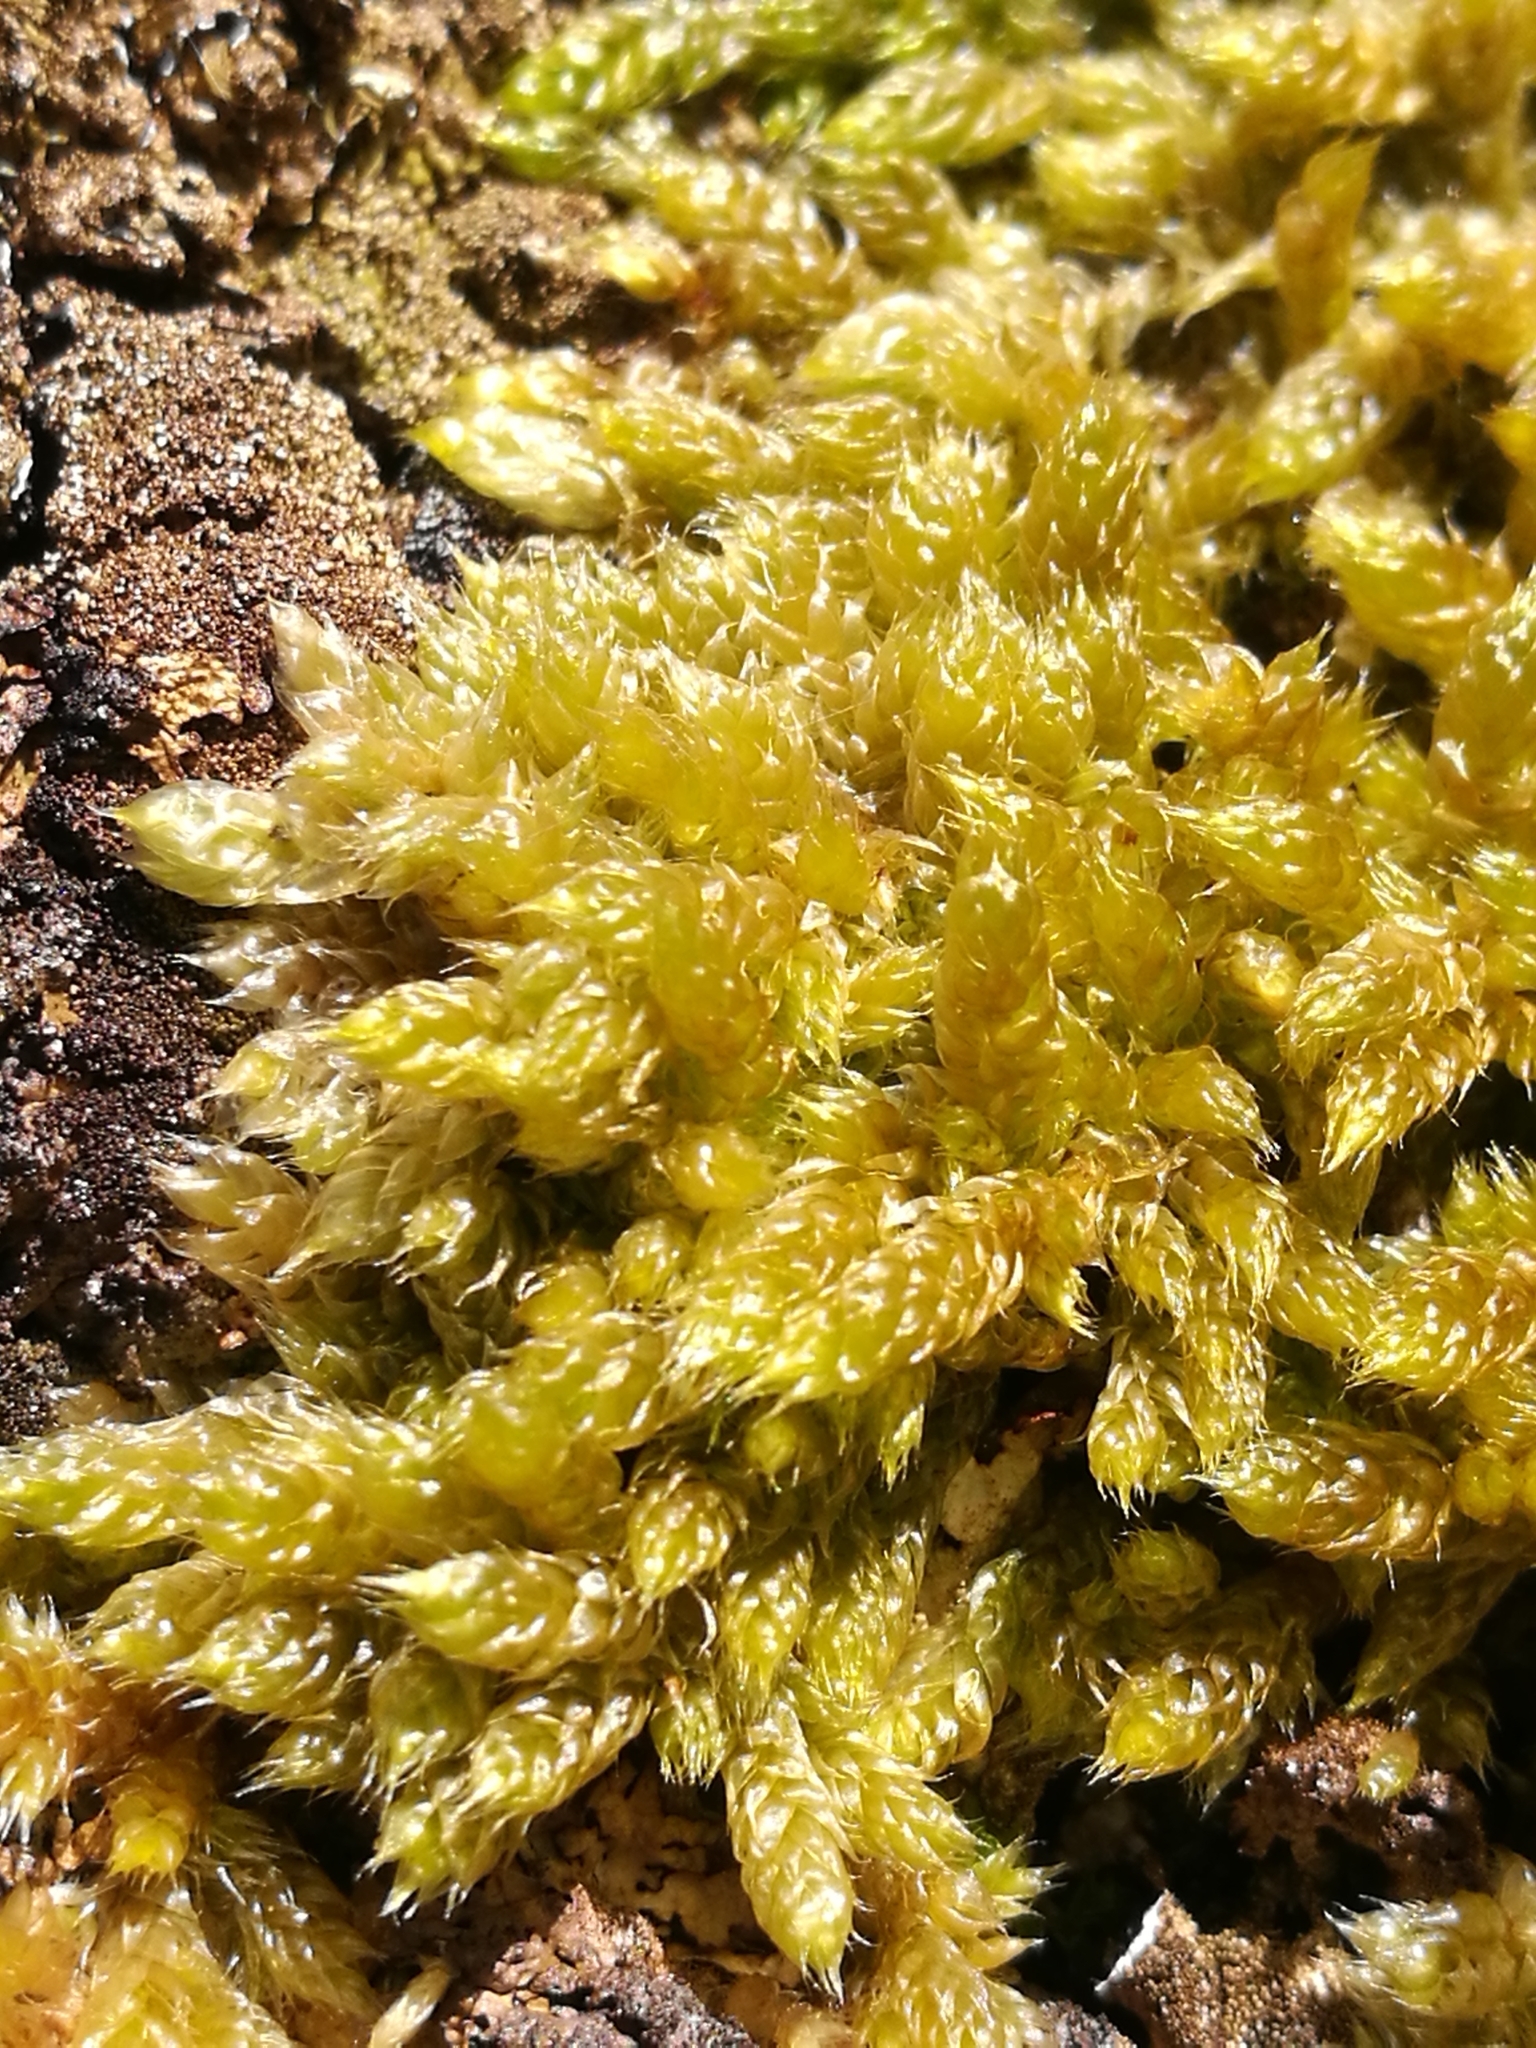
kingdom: Plantae
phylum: Bryophyta
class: Bryopsida
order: Hypnales
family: Hypnaceae
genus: Hypnum
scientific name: Hypnum cupressiforme
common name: Cypress-leaved plait-moss
